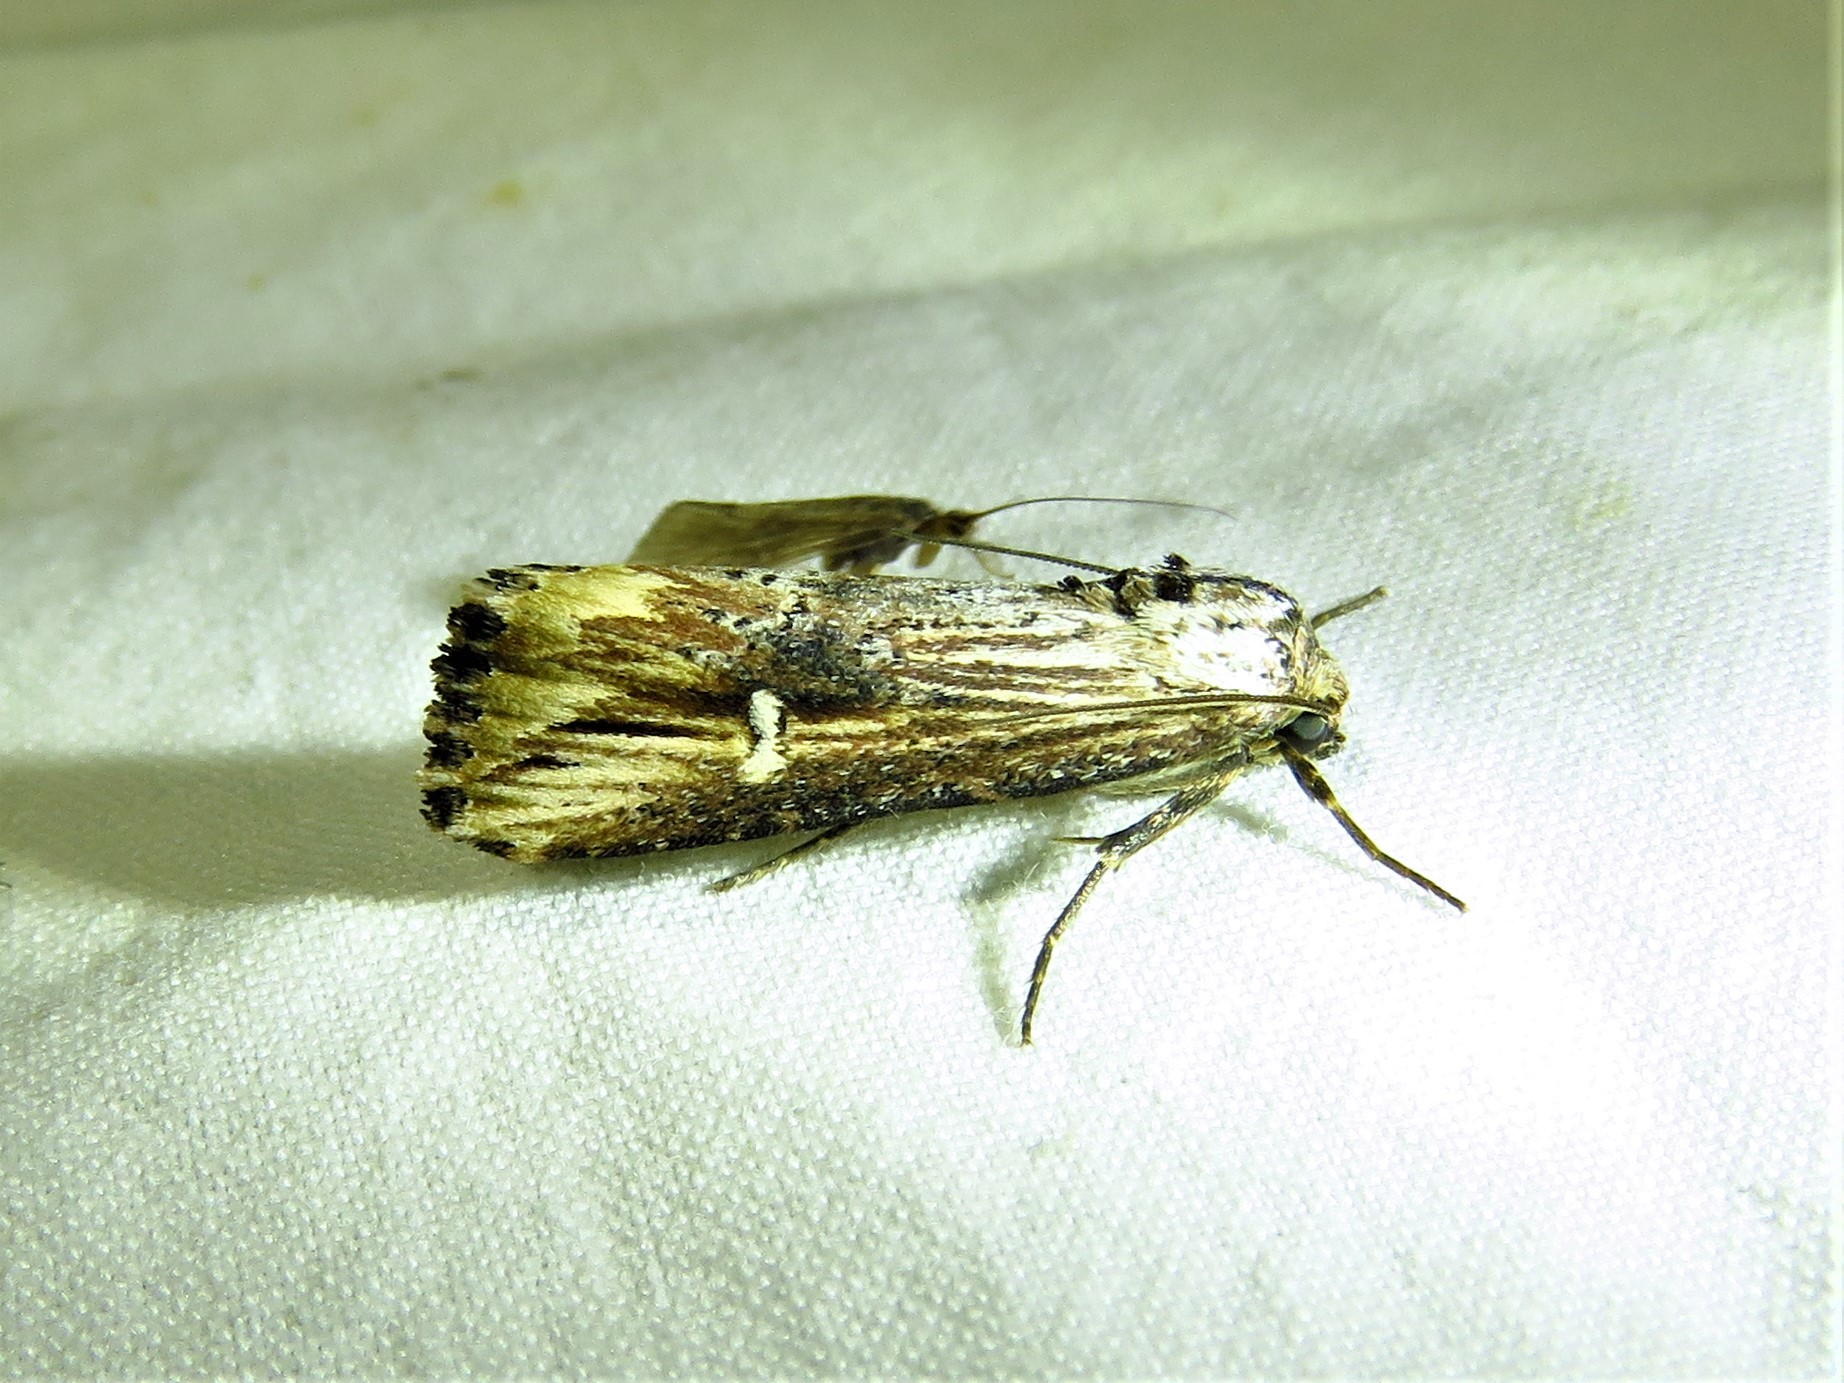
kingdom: Animalia
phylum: Arthropoda
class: Insecta
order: Lepidoptera
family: Noctuidae
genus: Crambodes
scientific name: Crambodes talidiformis
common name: Verbena moth
